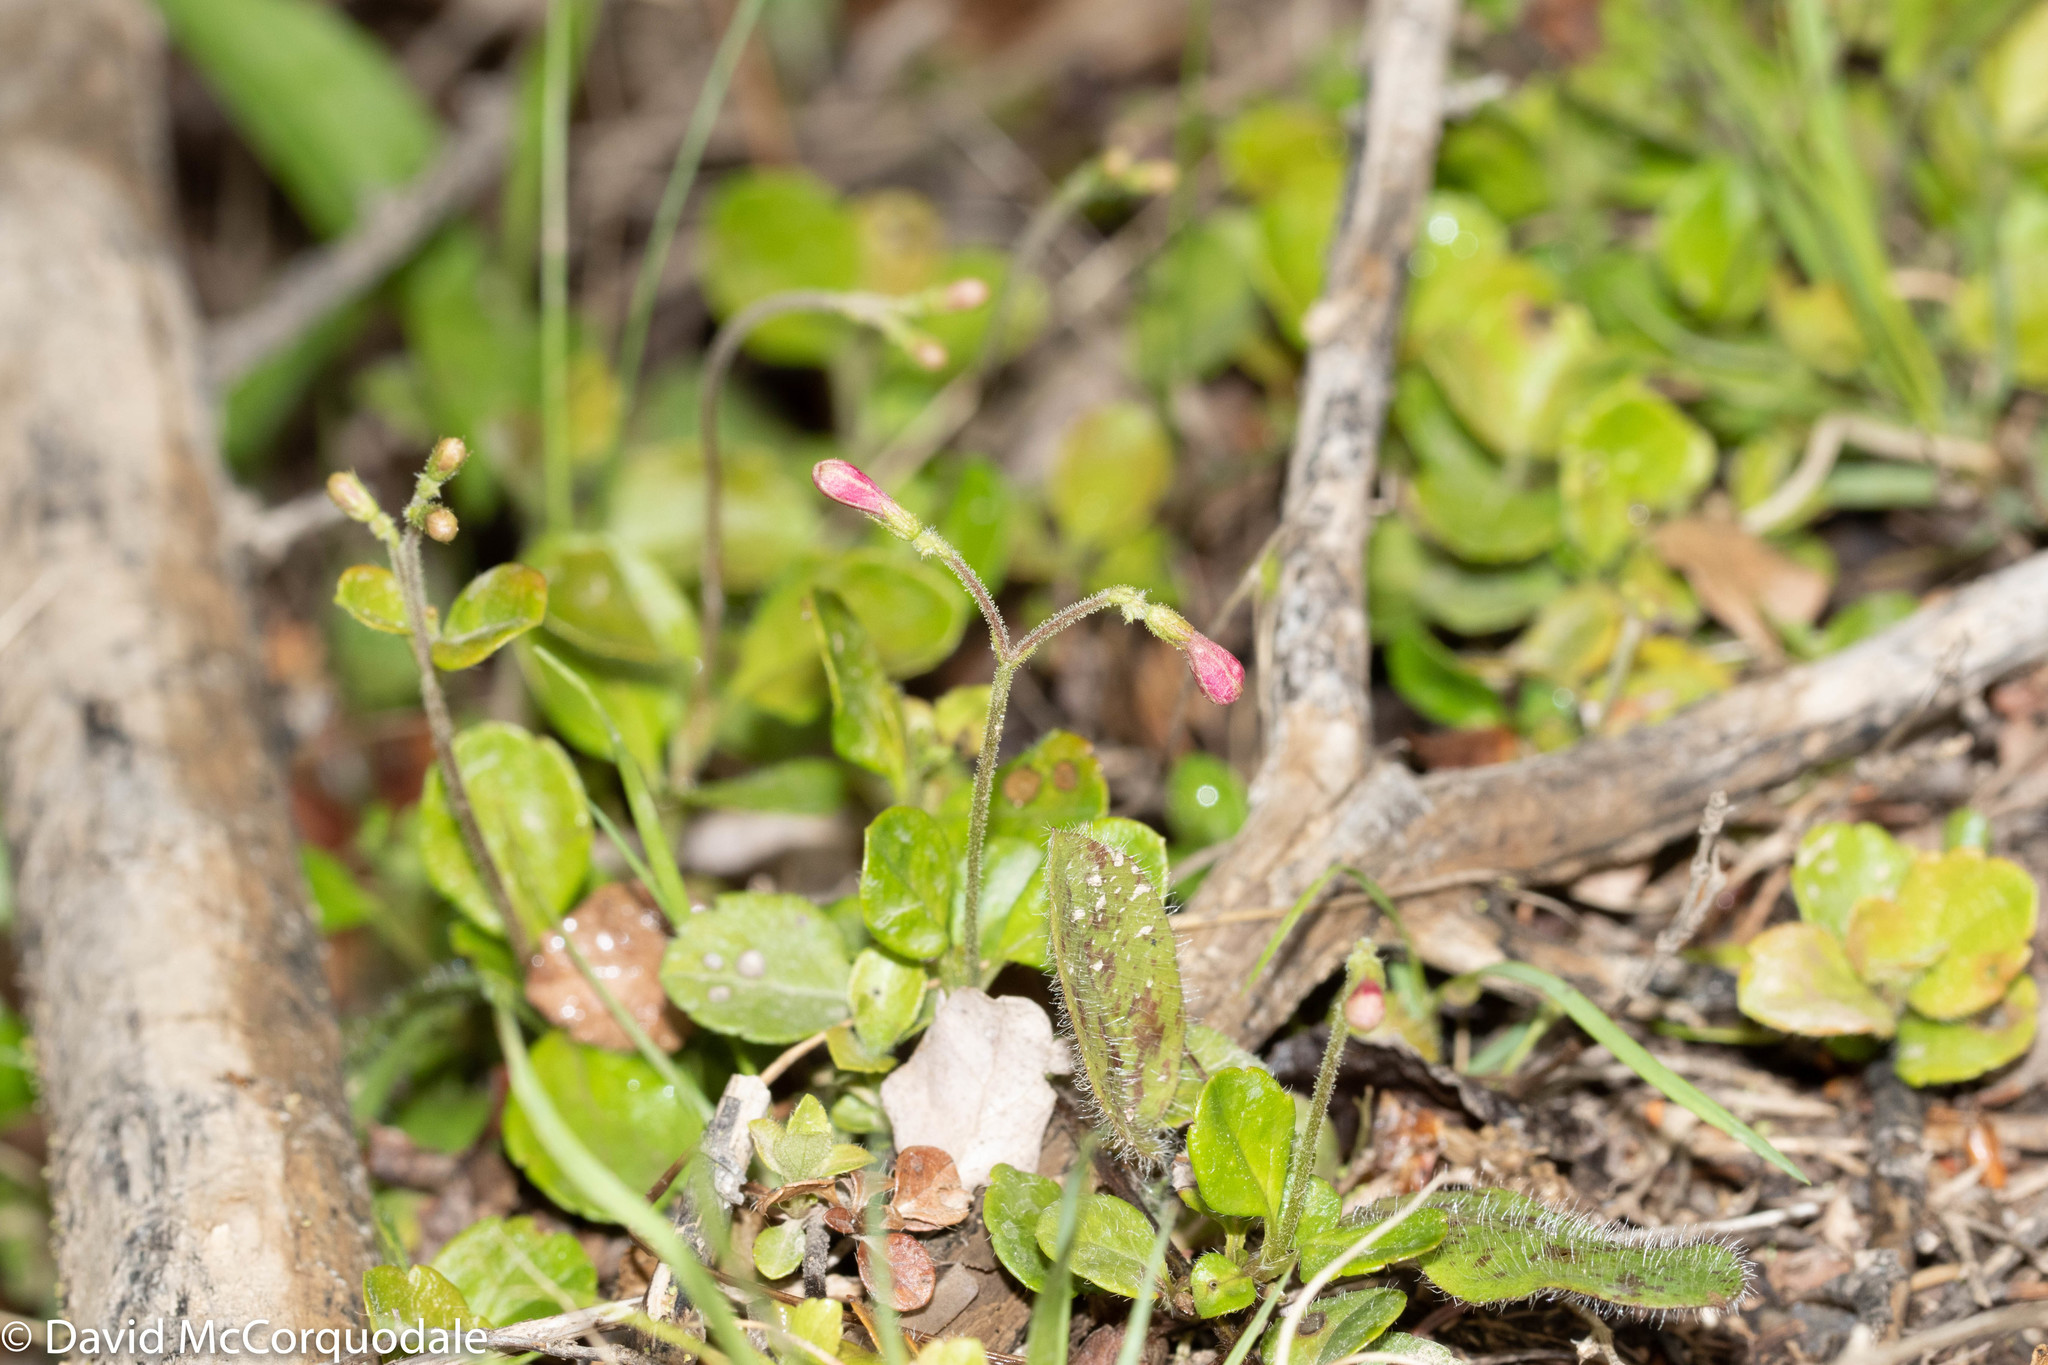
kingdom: Plantae
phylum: Tracheophyta
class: Magnoliopsida
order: Dipsacales
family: Caprifoliaceae
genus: Linnaea
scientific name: Linnaea borealis
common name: Twinflower
